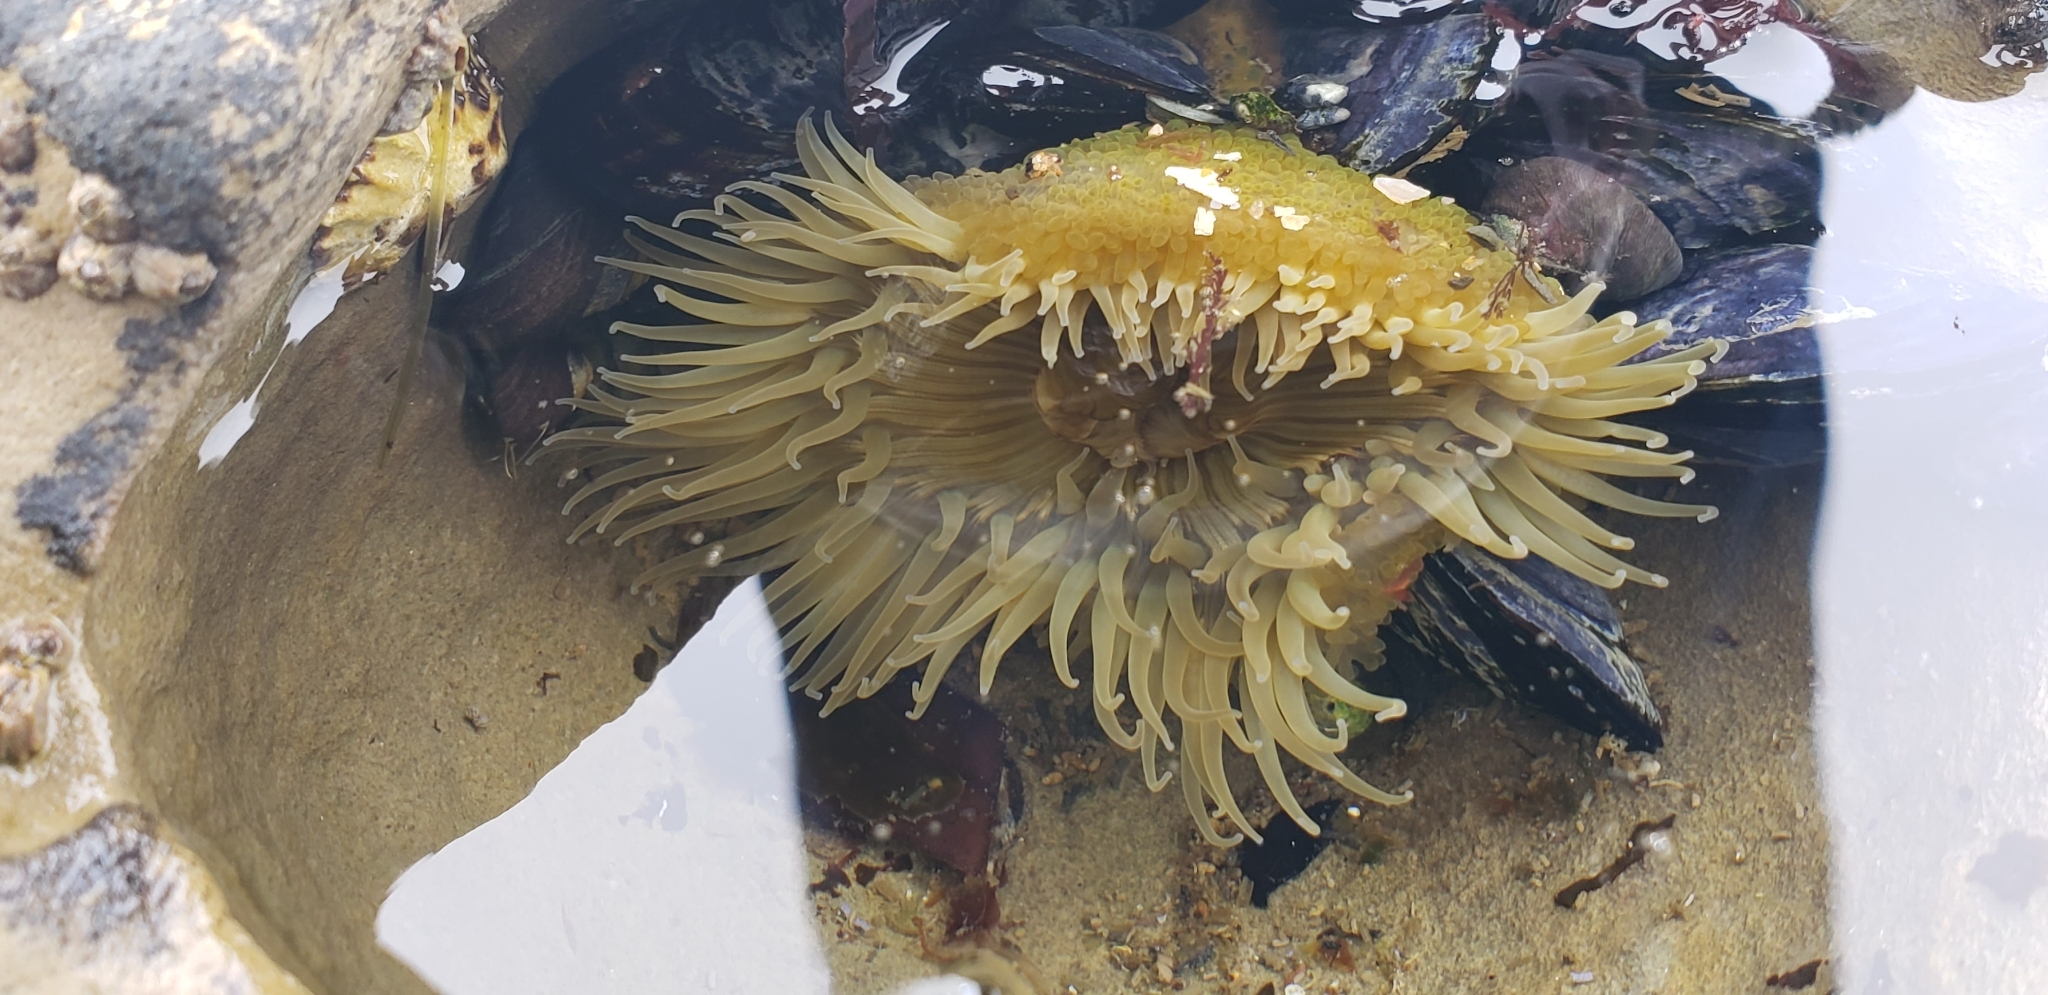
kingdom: Animalia
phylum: Cnidaria
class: Anthozoa
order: Actiniaria
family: Actiniidae
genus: Anthopleura
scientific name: Anthopleura sola
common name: Sun anemone
